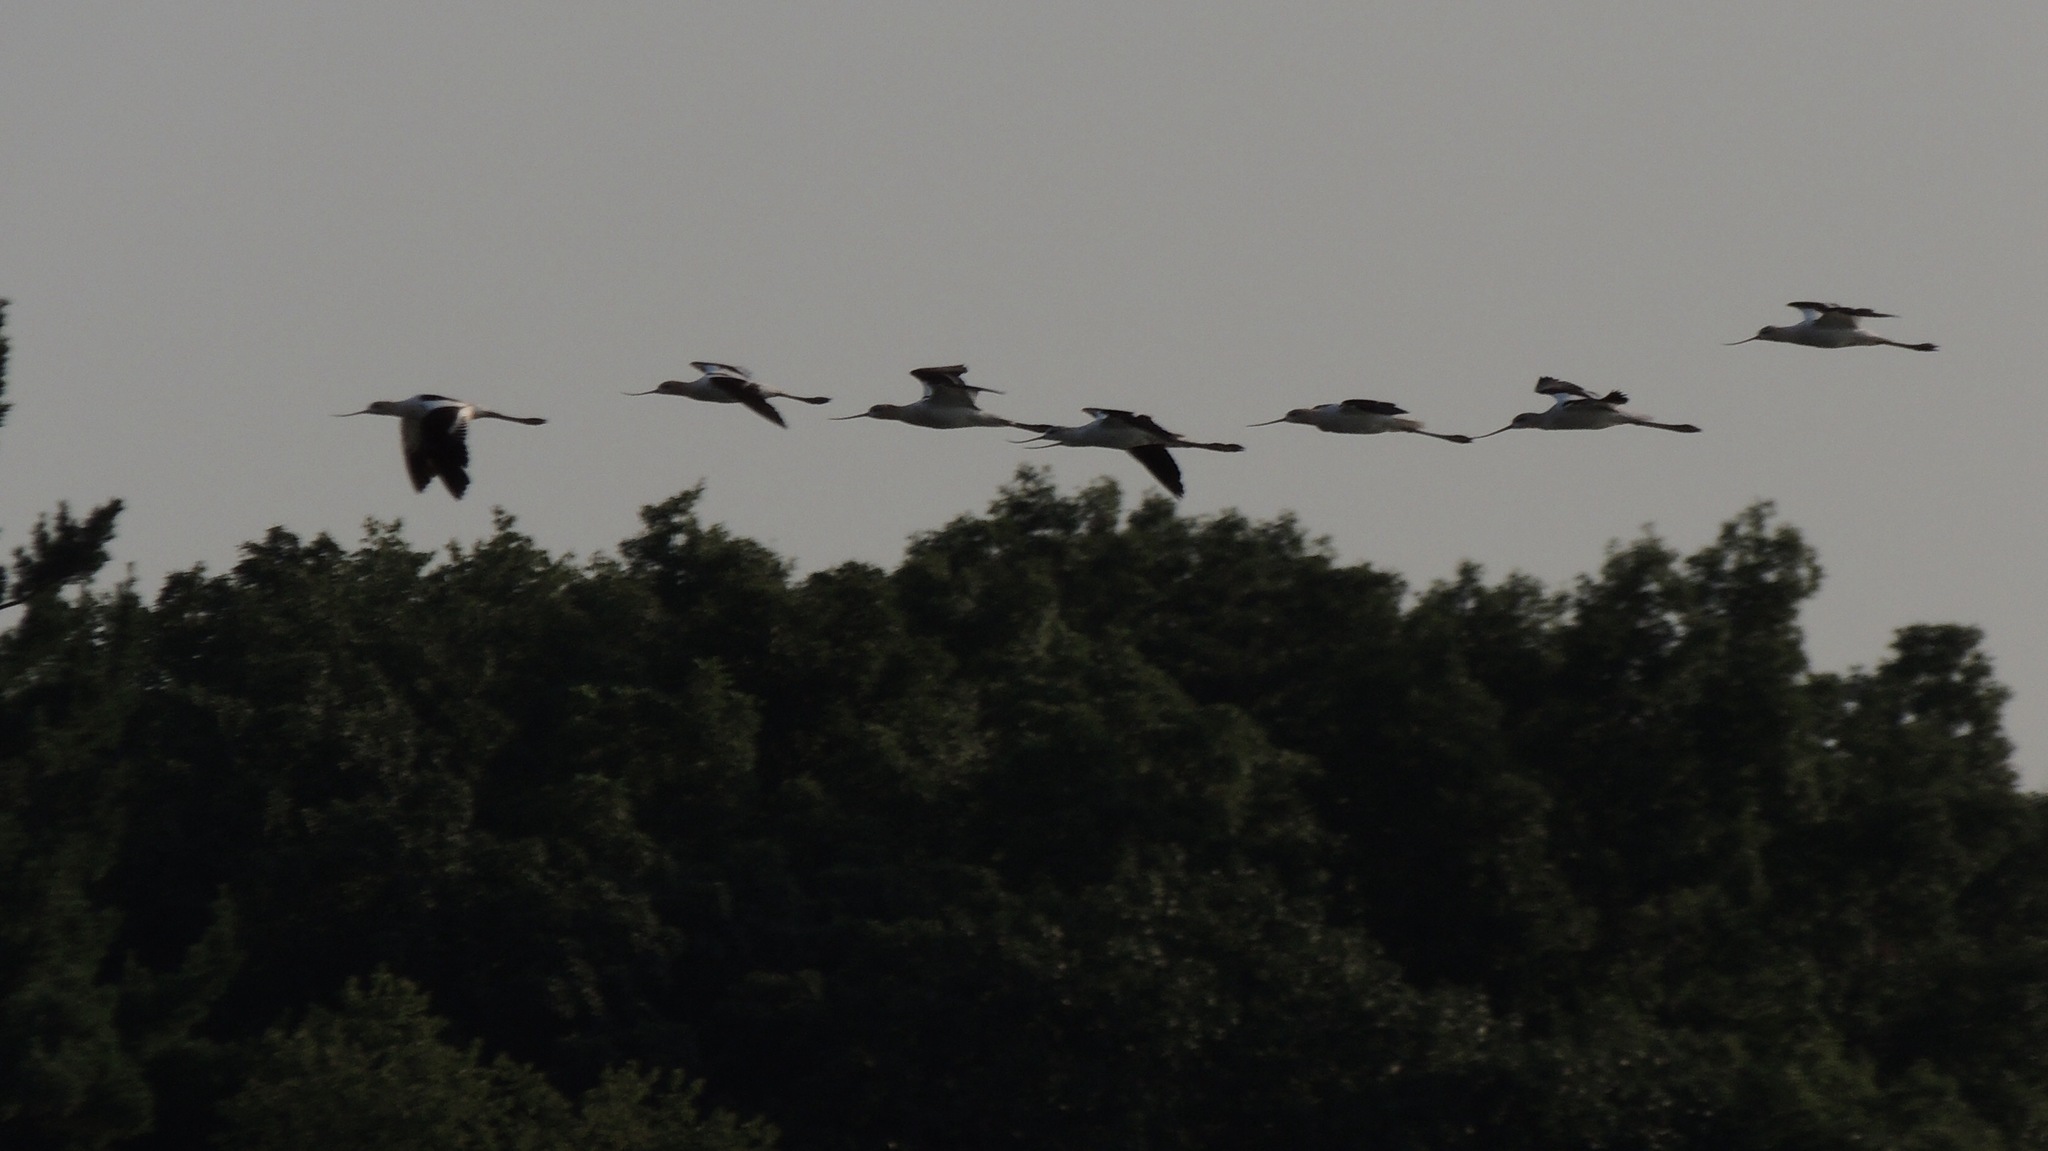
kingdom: Animalia
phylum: Chordata
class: Aves
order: Charadriiformes
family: Recurvirostridae
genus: Recurvirostra
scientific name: Recurvirostra americana
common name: American avocet
